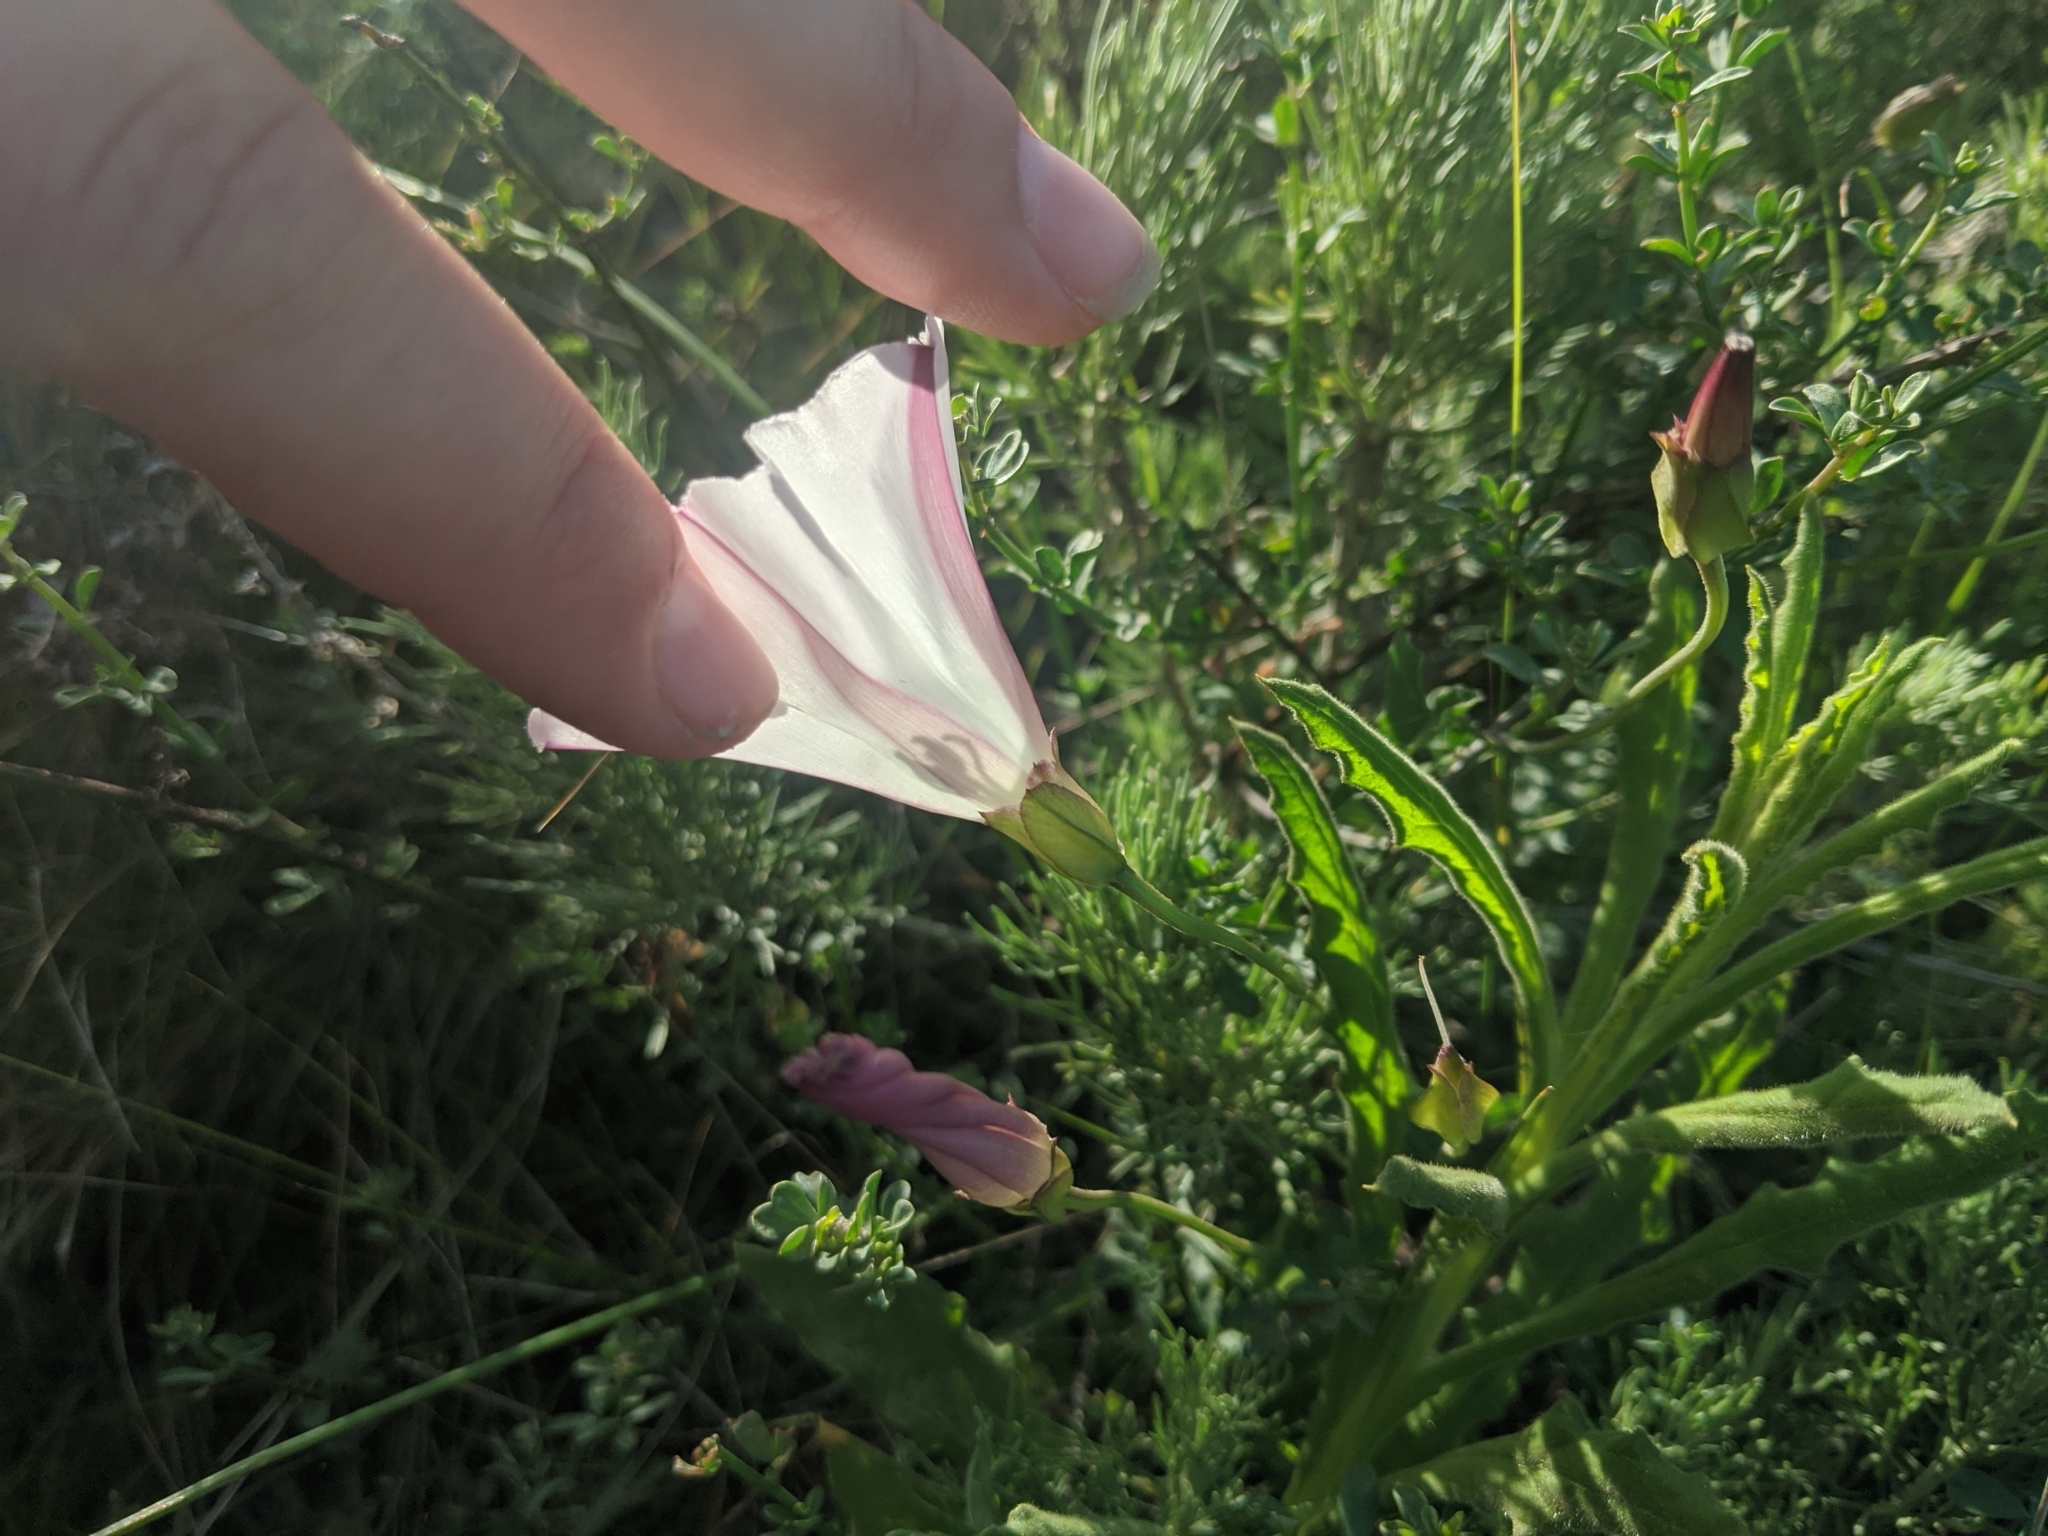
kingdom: Plantae
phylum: Tracheophyta
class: Magnoliopsida
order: Solanales
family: Convolvulaceae
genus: Calystegia
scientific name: Calystegia macrostegia
